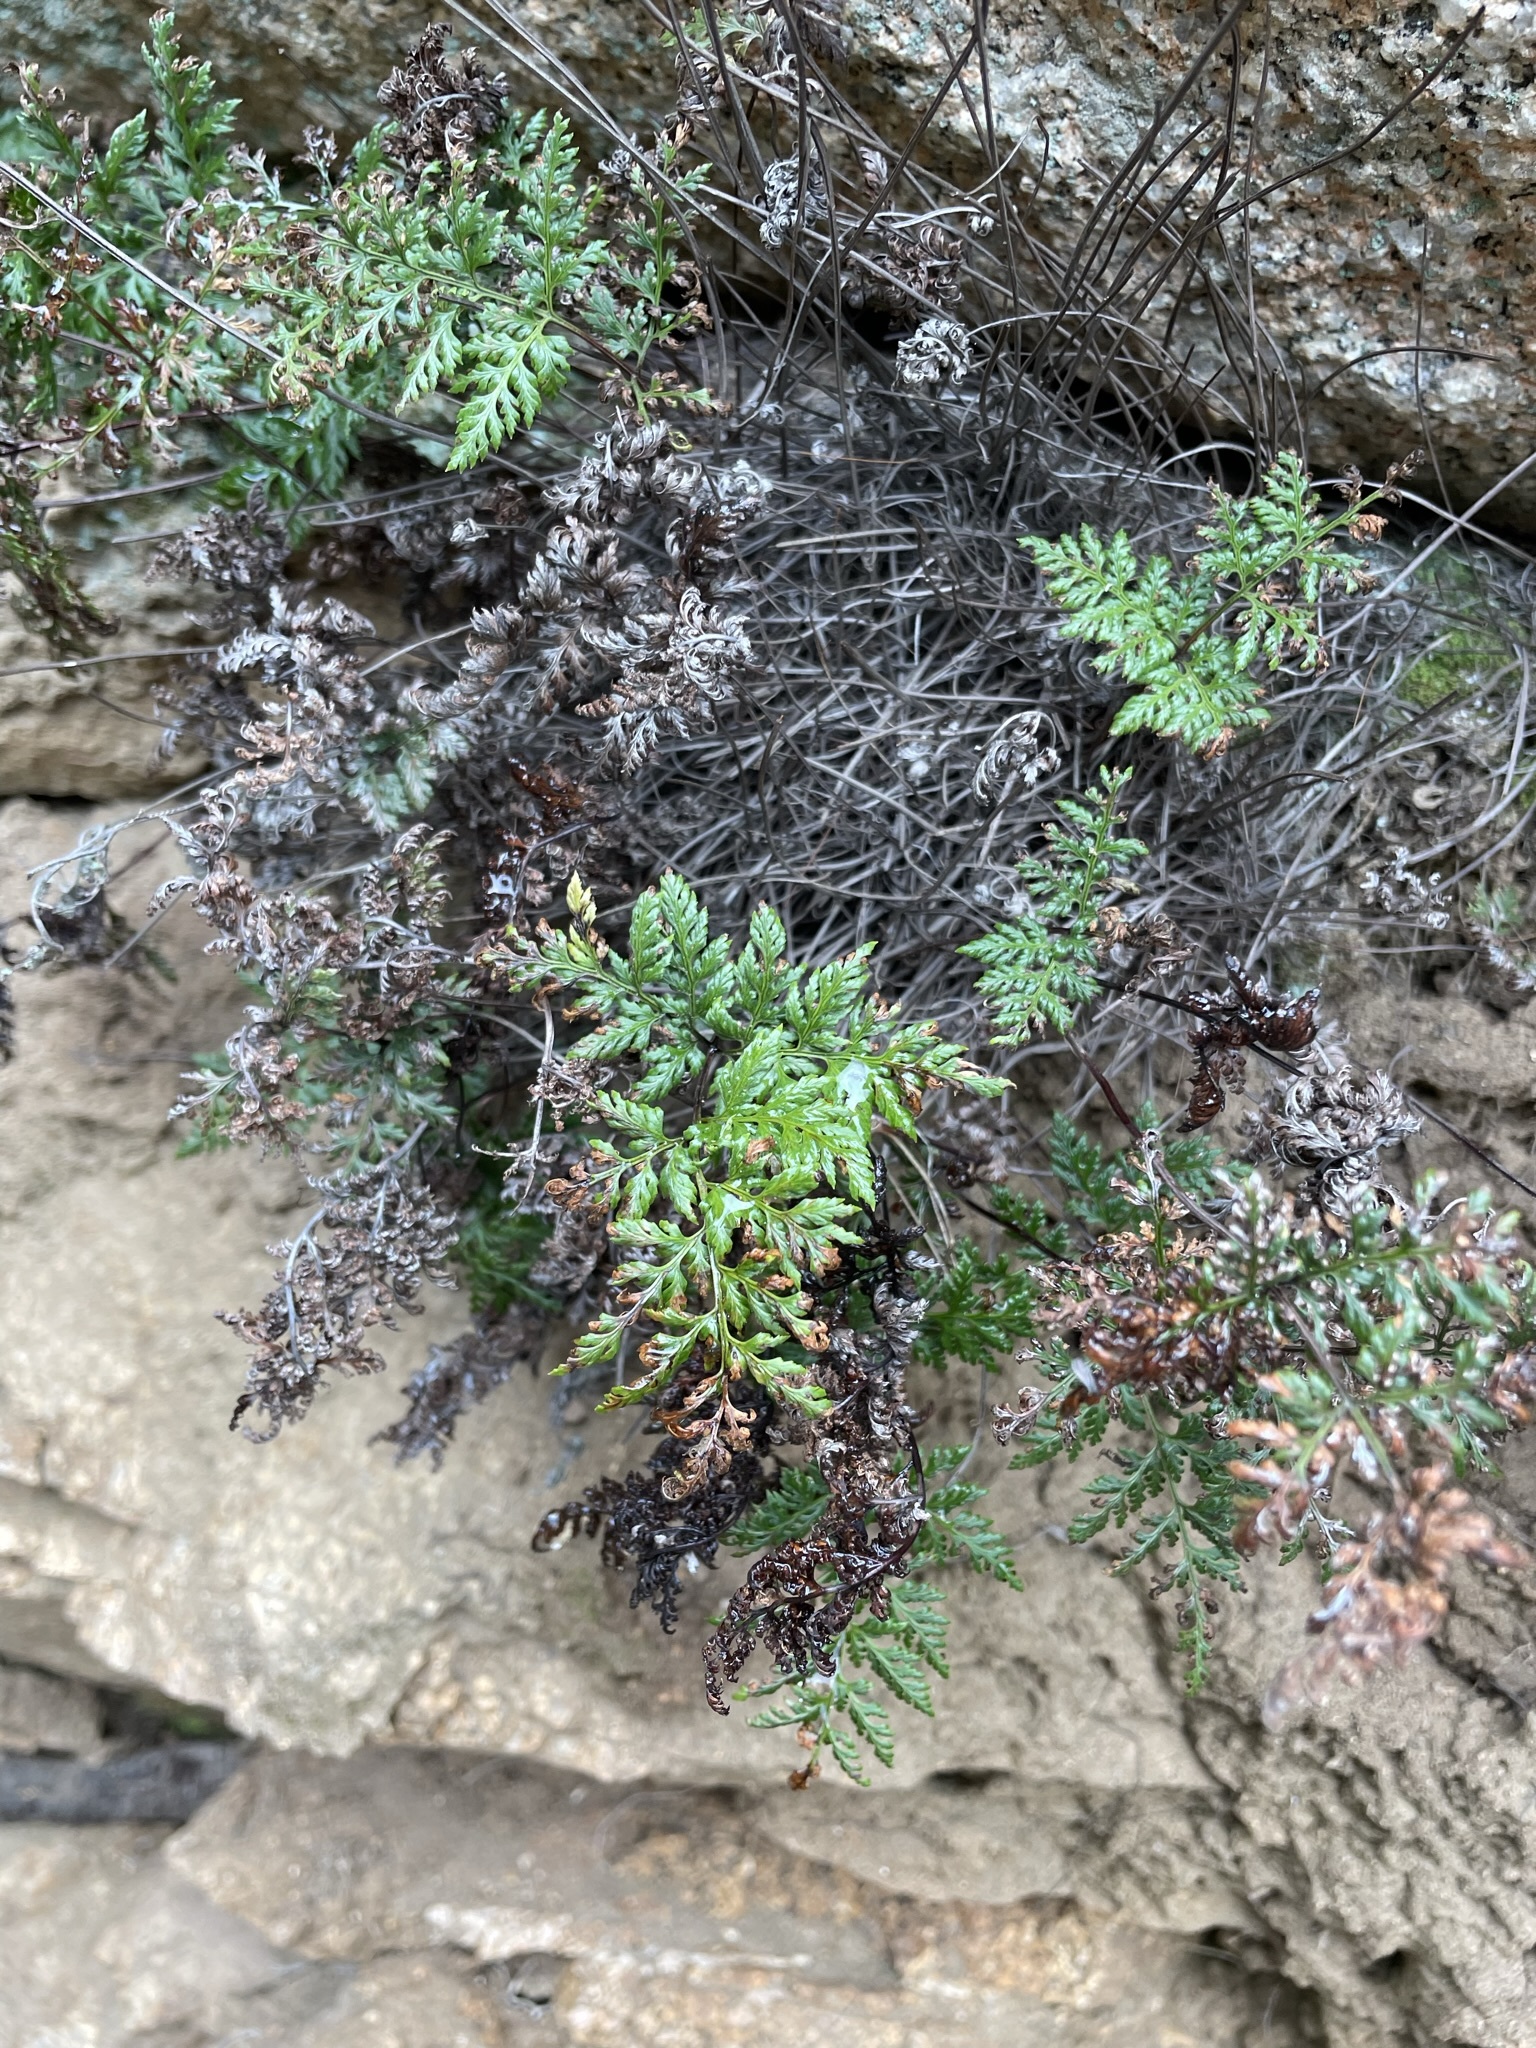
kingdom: Plantae
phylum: Tracheophyta
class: Polypodiopsida
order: Polypodiales
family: Pteridaceae
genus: Aspidotis
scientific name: Aspidotis californica
